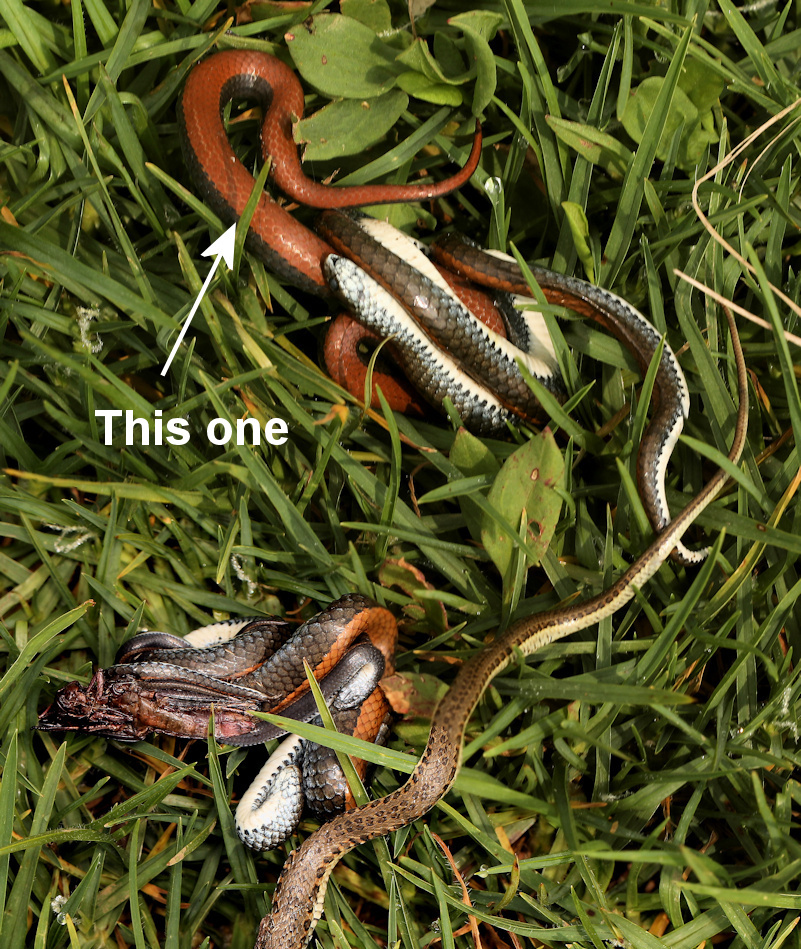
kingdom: Animalia
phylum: Chordata
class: Squamata
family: Pseudoxyrhophiidae
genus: Duberria
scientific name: Duberria lutrix
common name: Common slug eater
